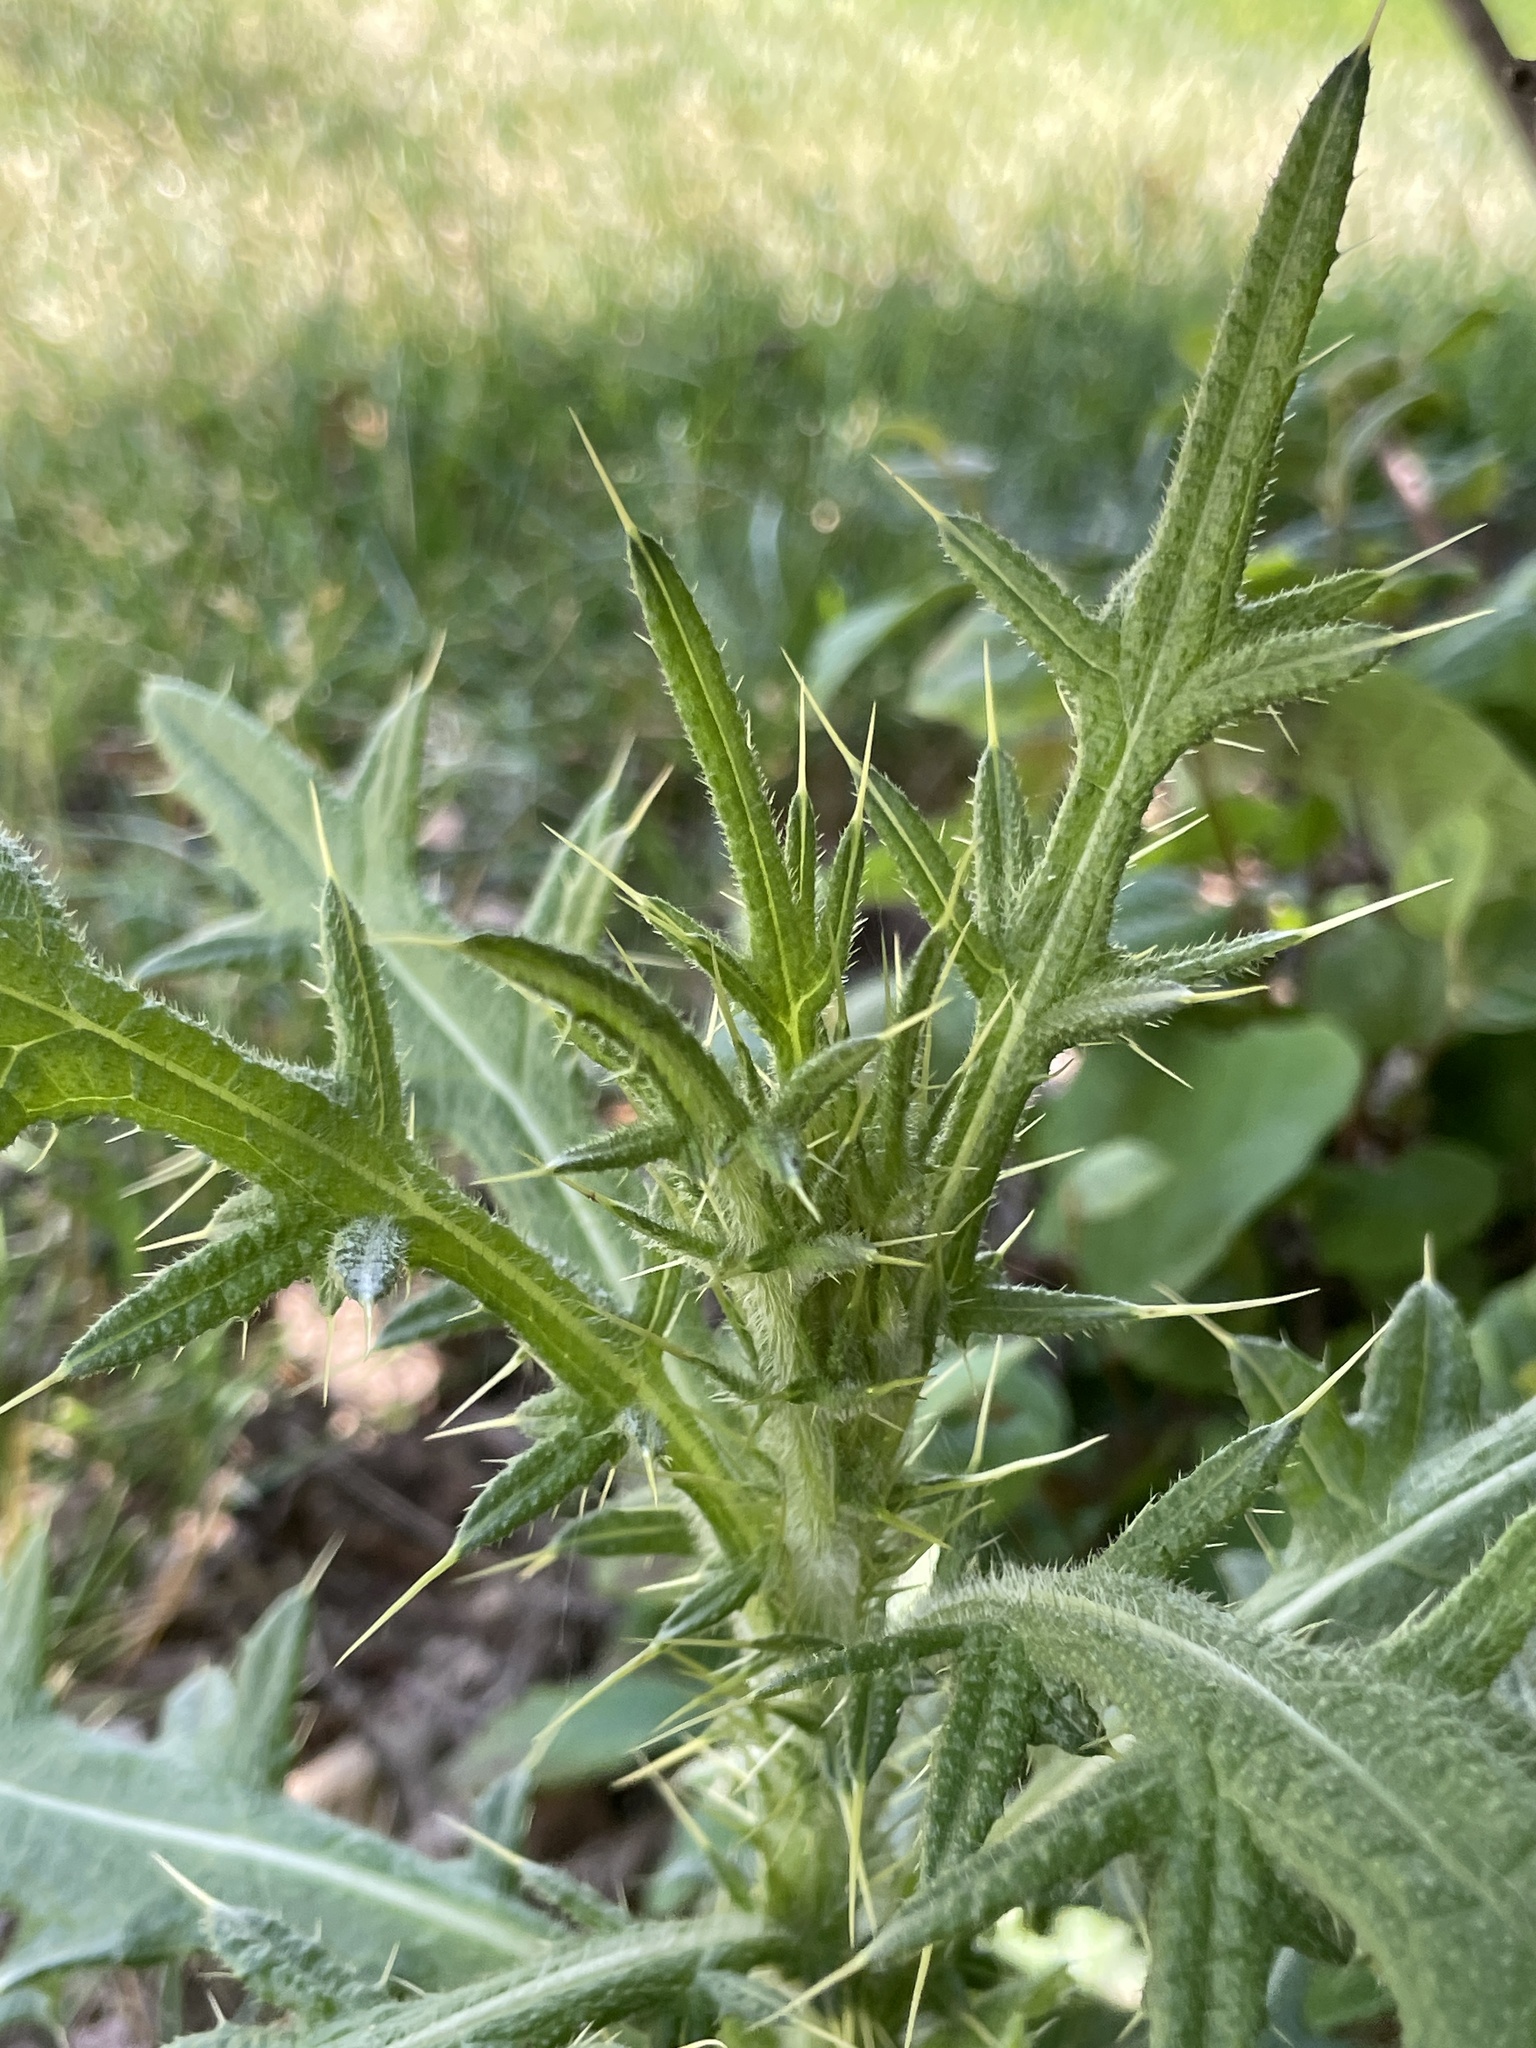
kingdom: Plantae
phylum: Tracheophyta
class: Magnoliopsida
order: Asterales
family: Asteraceae
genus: Cirsium
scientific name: Cirsium vulgare
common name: Bull thistle
